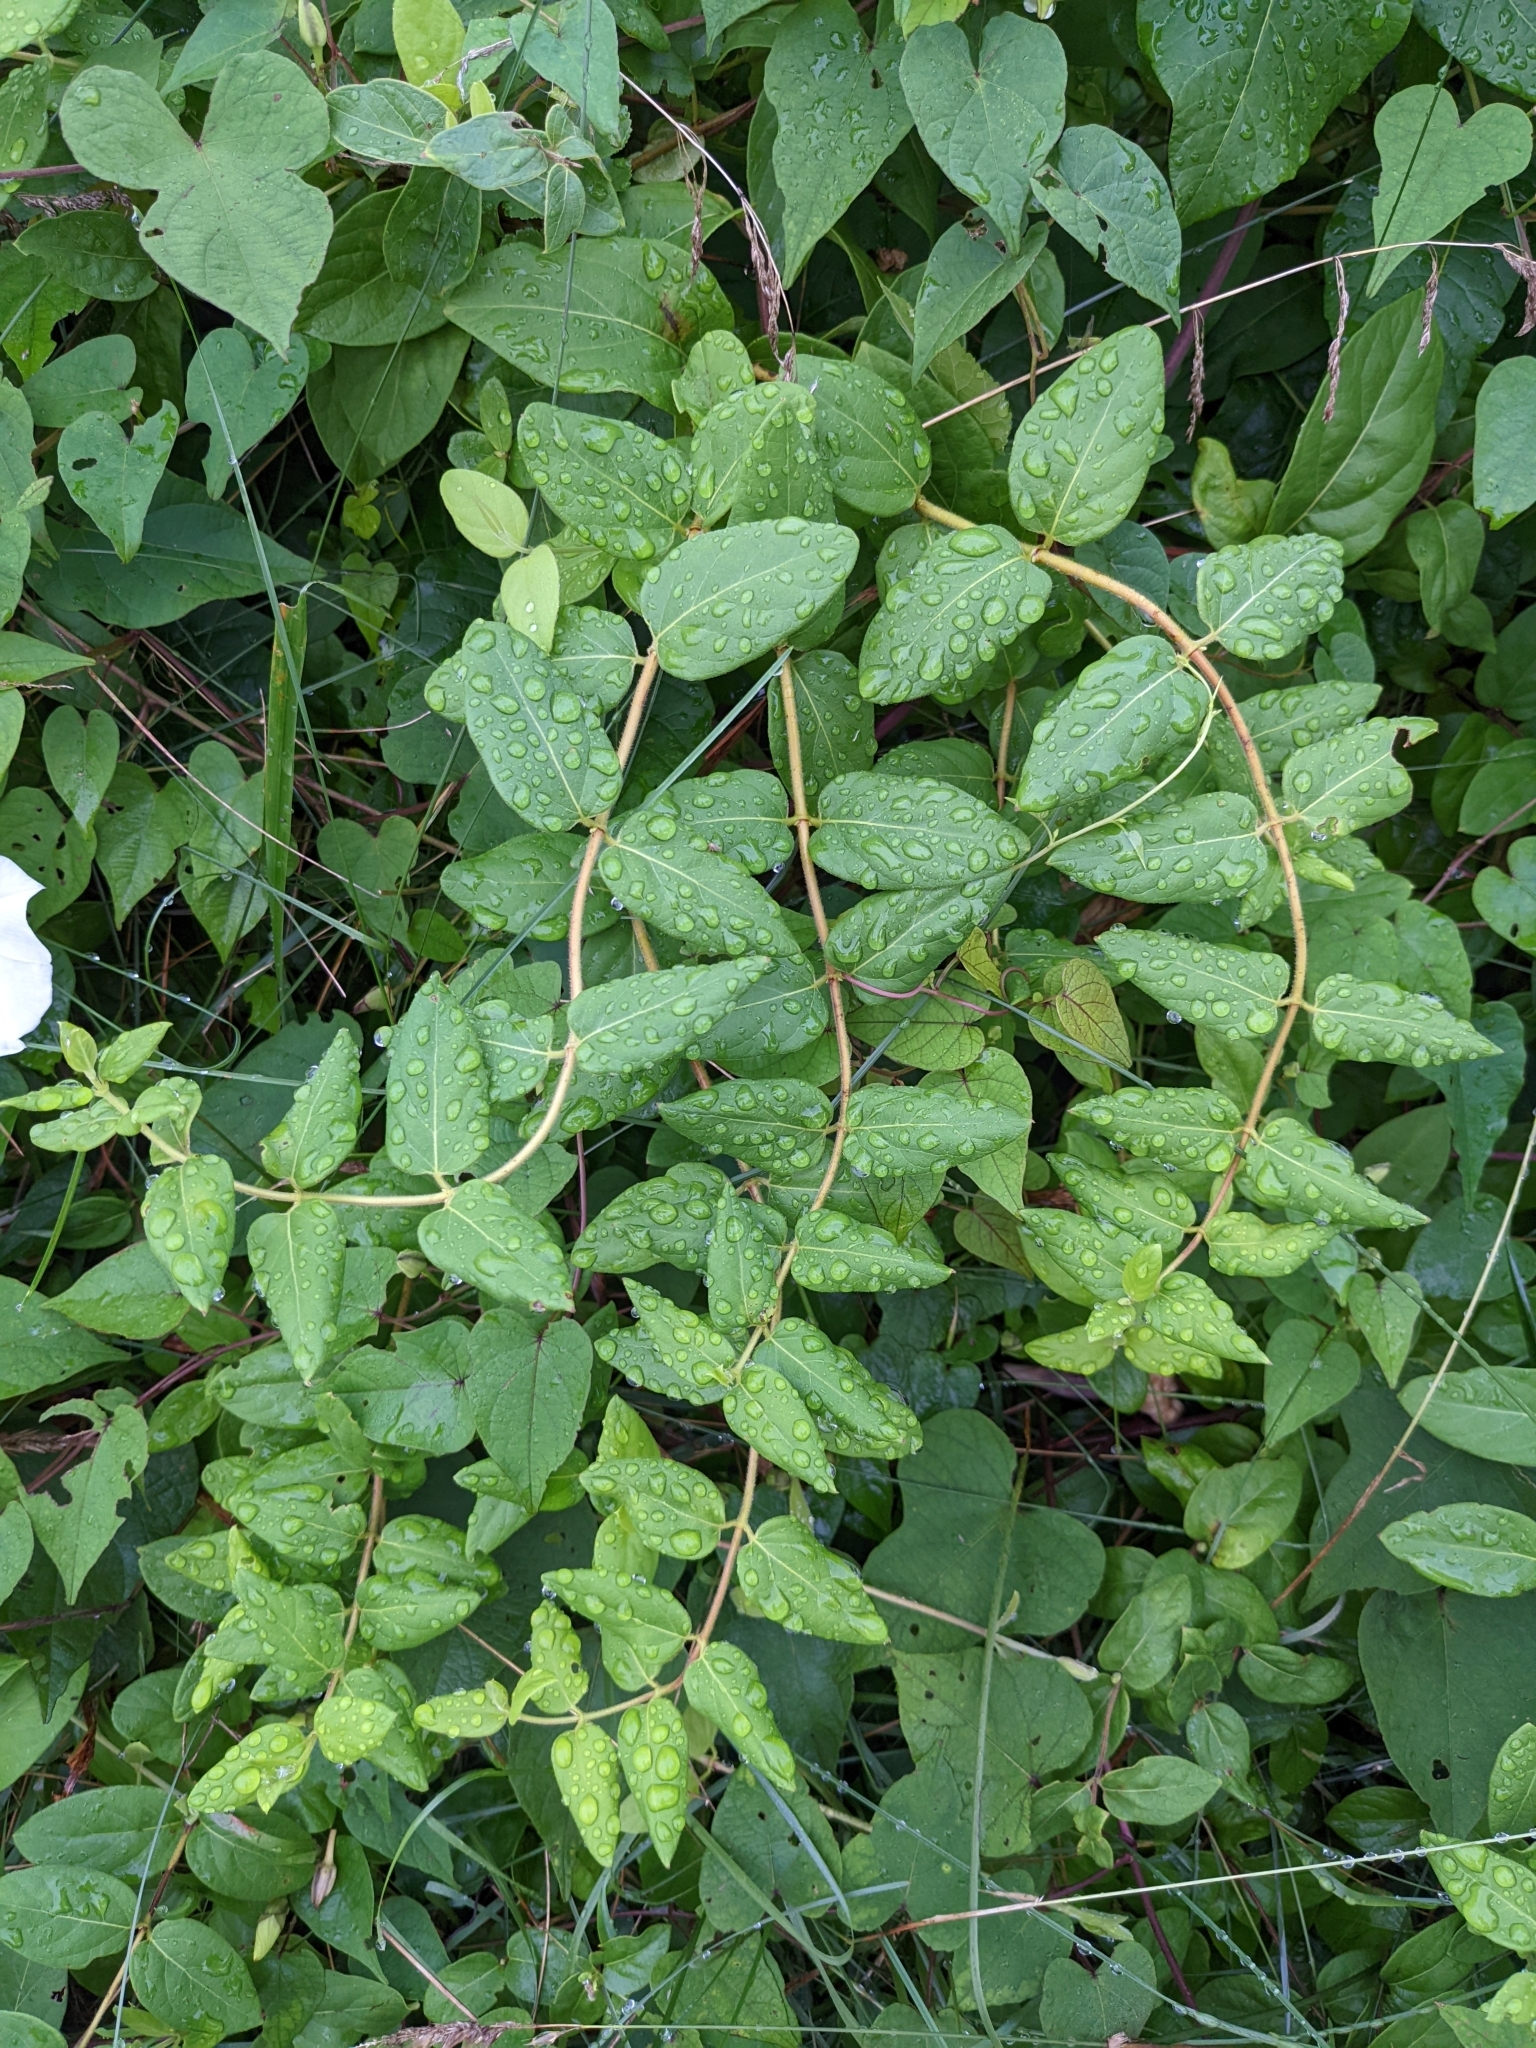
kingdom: Plantae
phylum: Tracheophyta
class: Magnoliopsida
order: Dipsacales
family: Caprifoliaceae
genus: Lonicera
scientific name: Lonicera japonica
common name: Japanese honeysuckle
